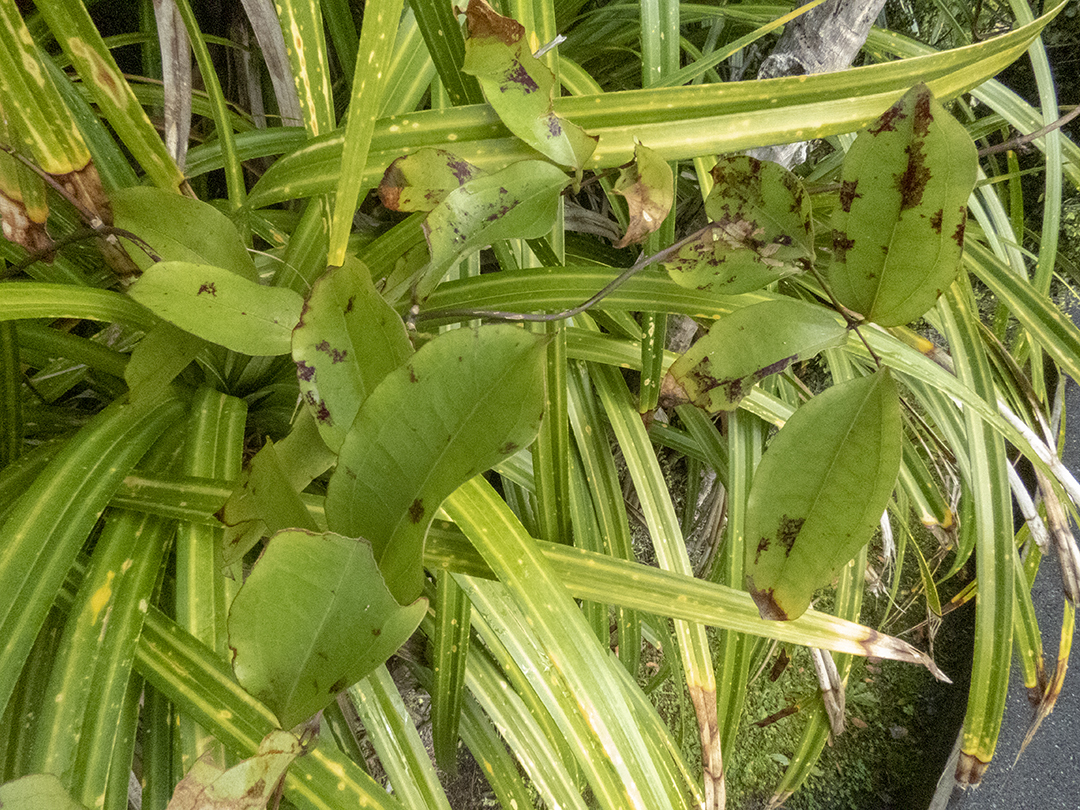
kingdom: Plantae
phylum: Tracheophyta
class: Liliopsida
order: Liliales
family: Ripogonaceae
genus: Ripogonum
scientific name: Ripogonum scandens
